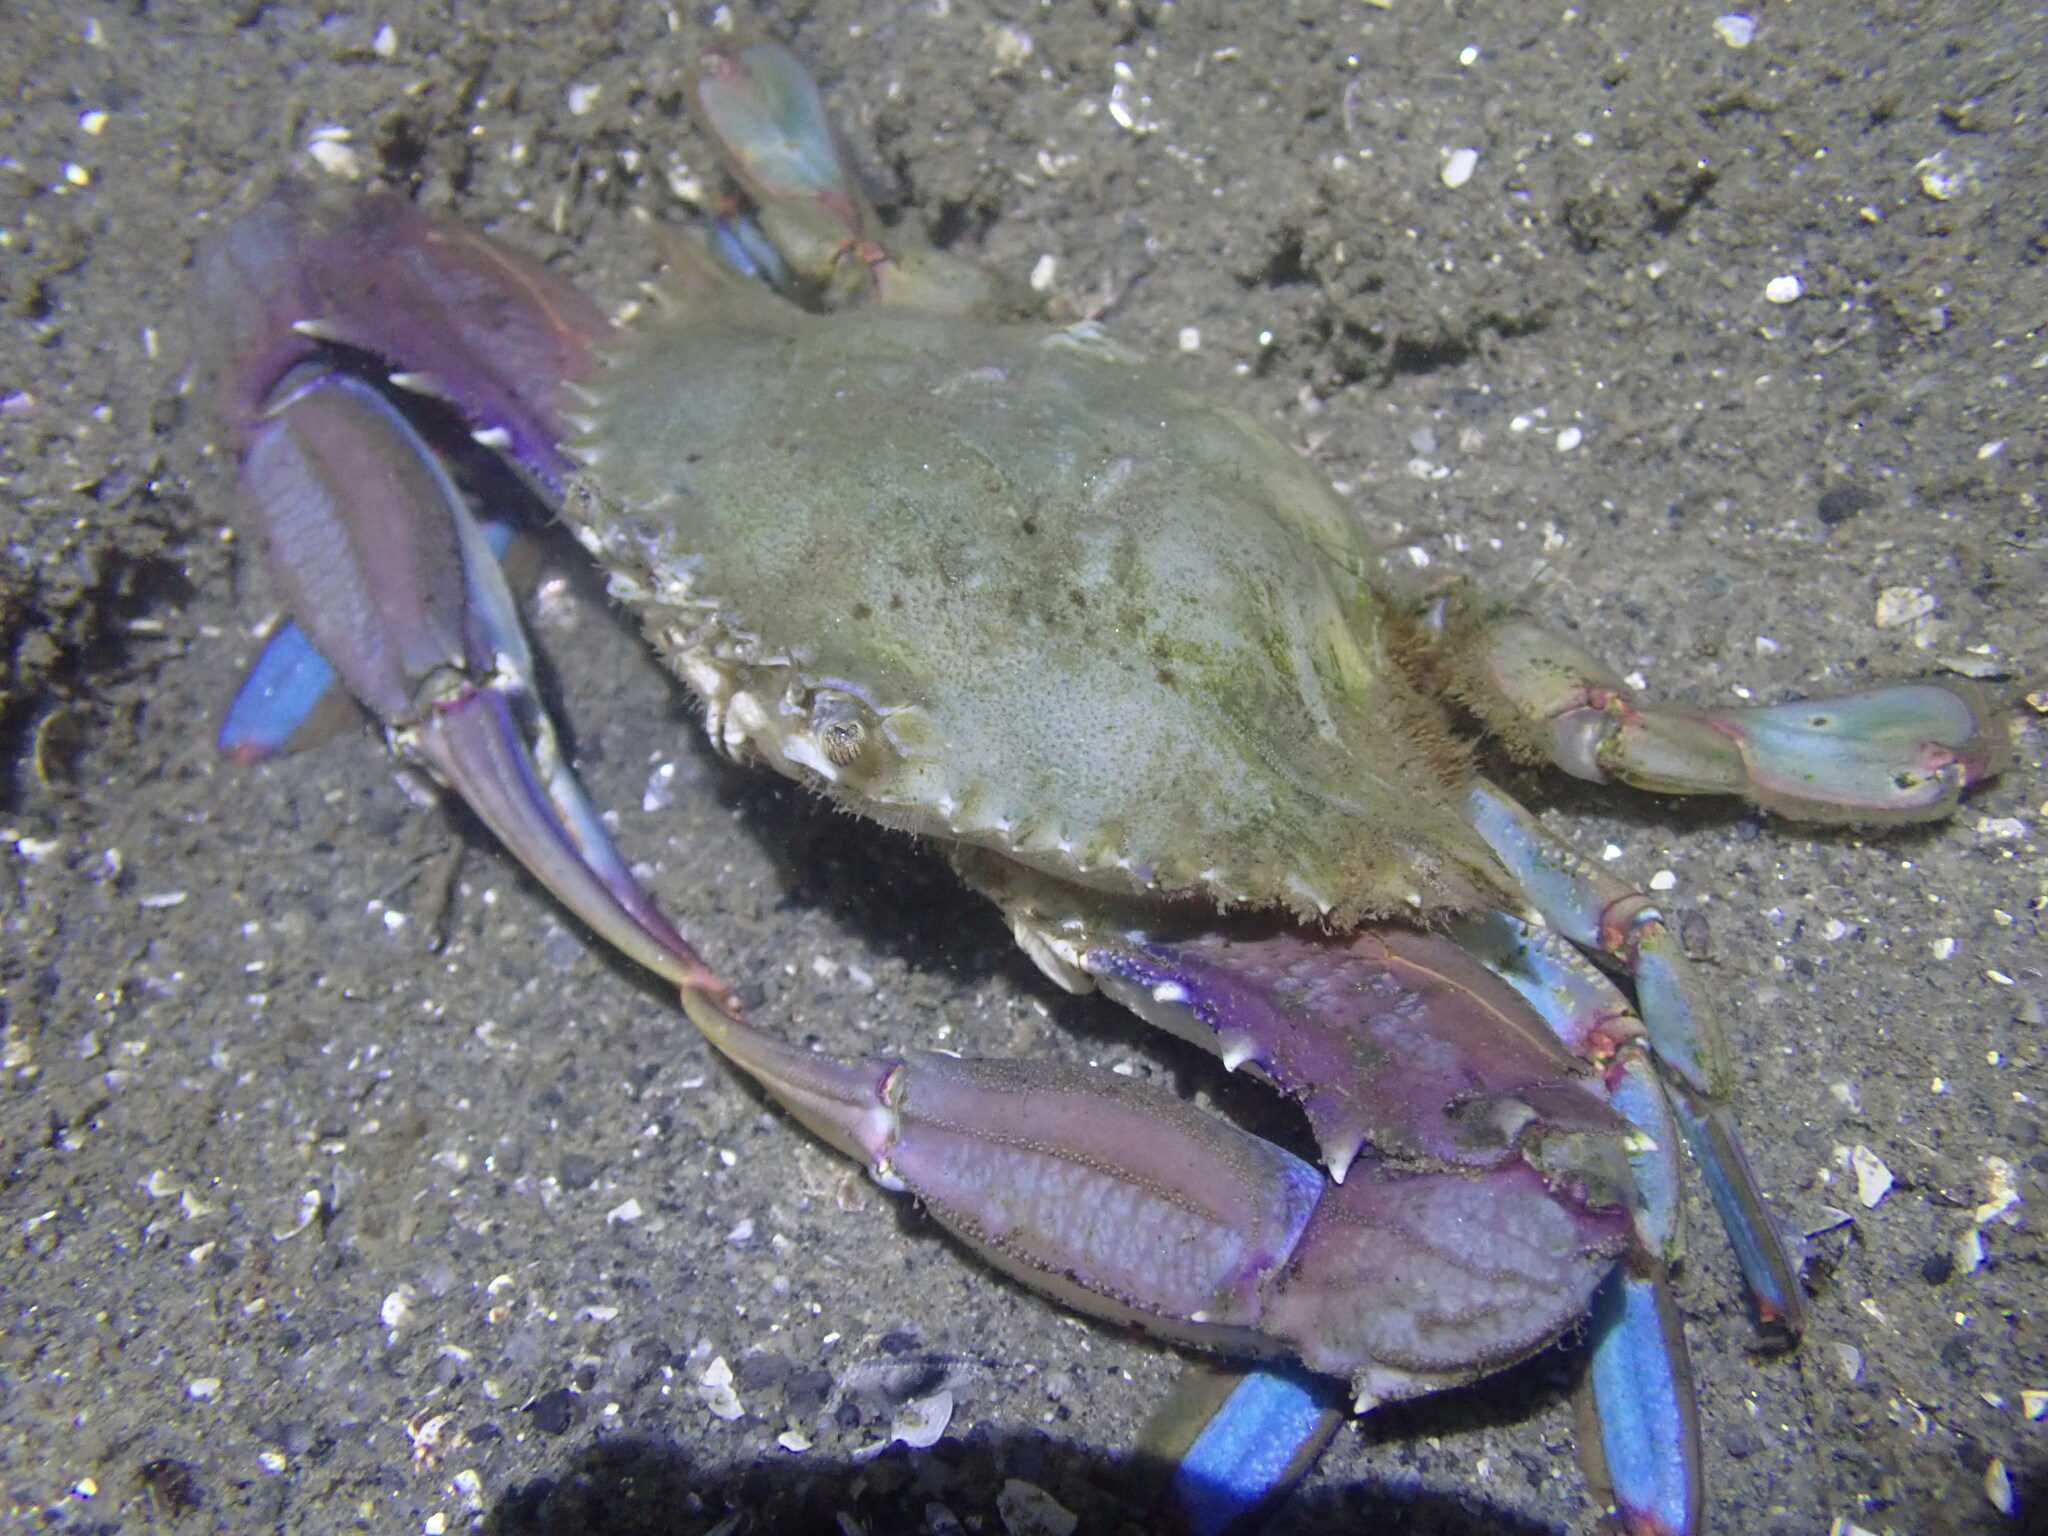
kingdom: Animalia
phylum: Arthropoda
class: Malacostraca
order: Decapoda
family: Portunidae
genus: Achelous
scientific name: Achelous xantusii
